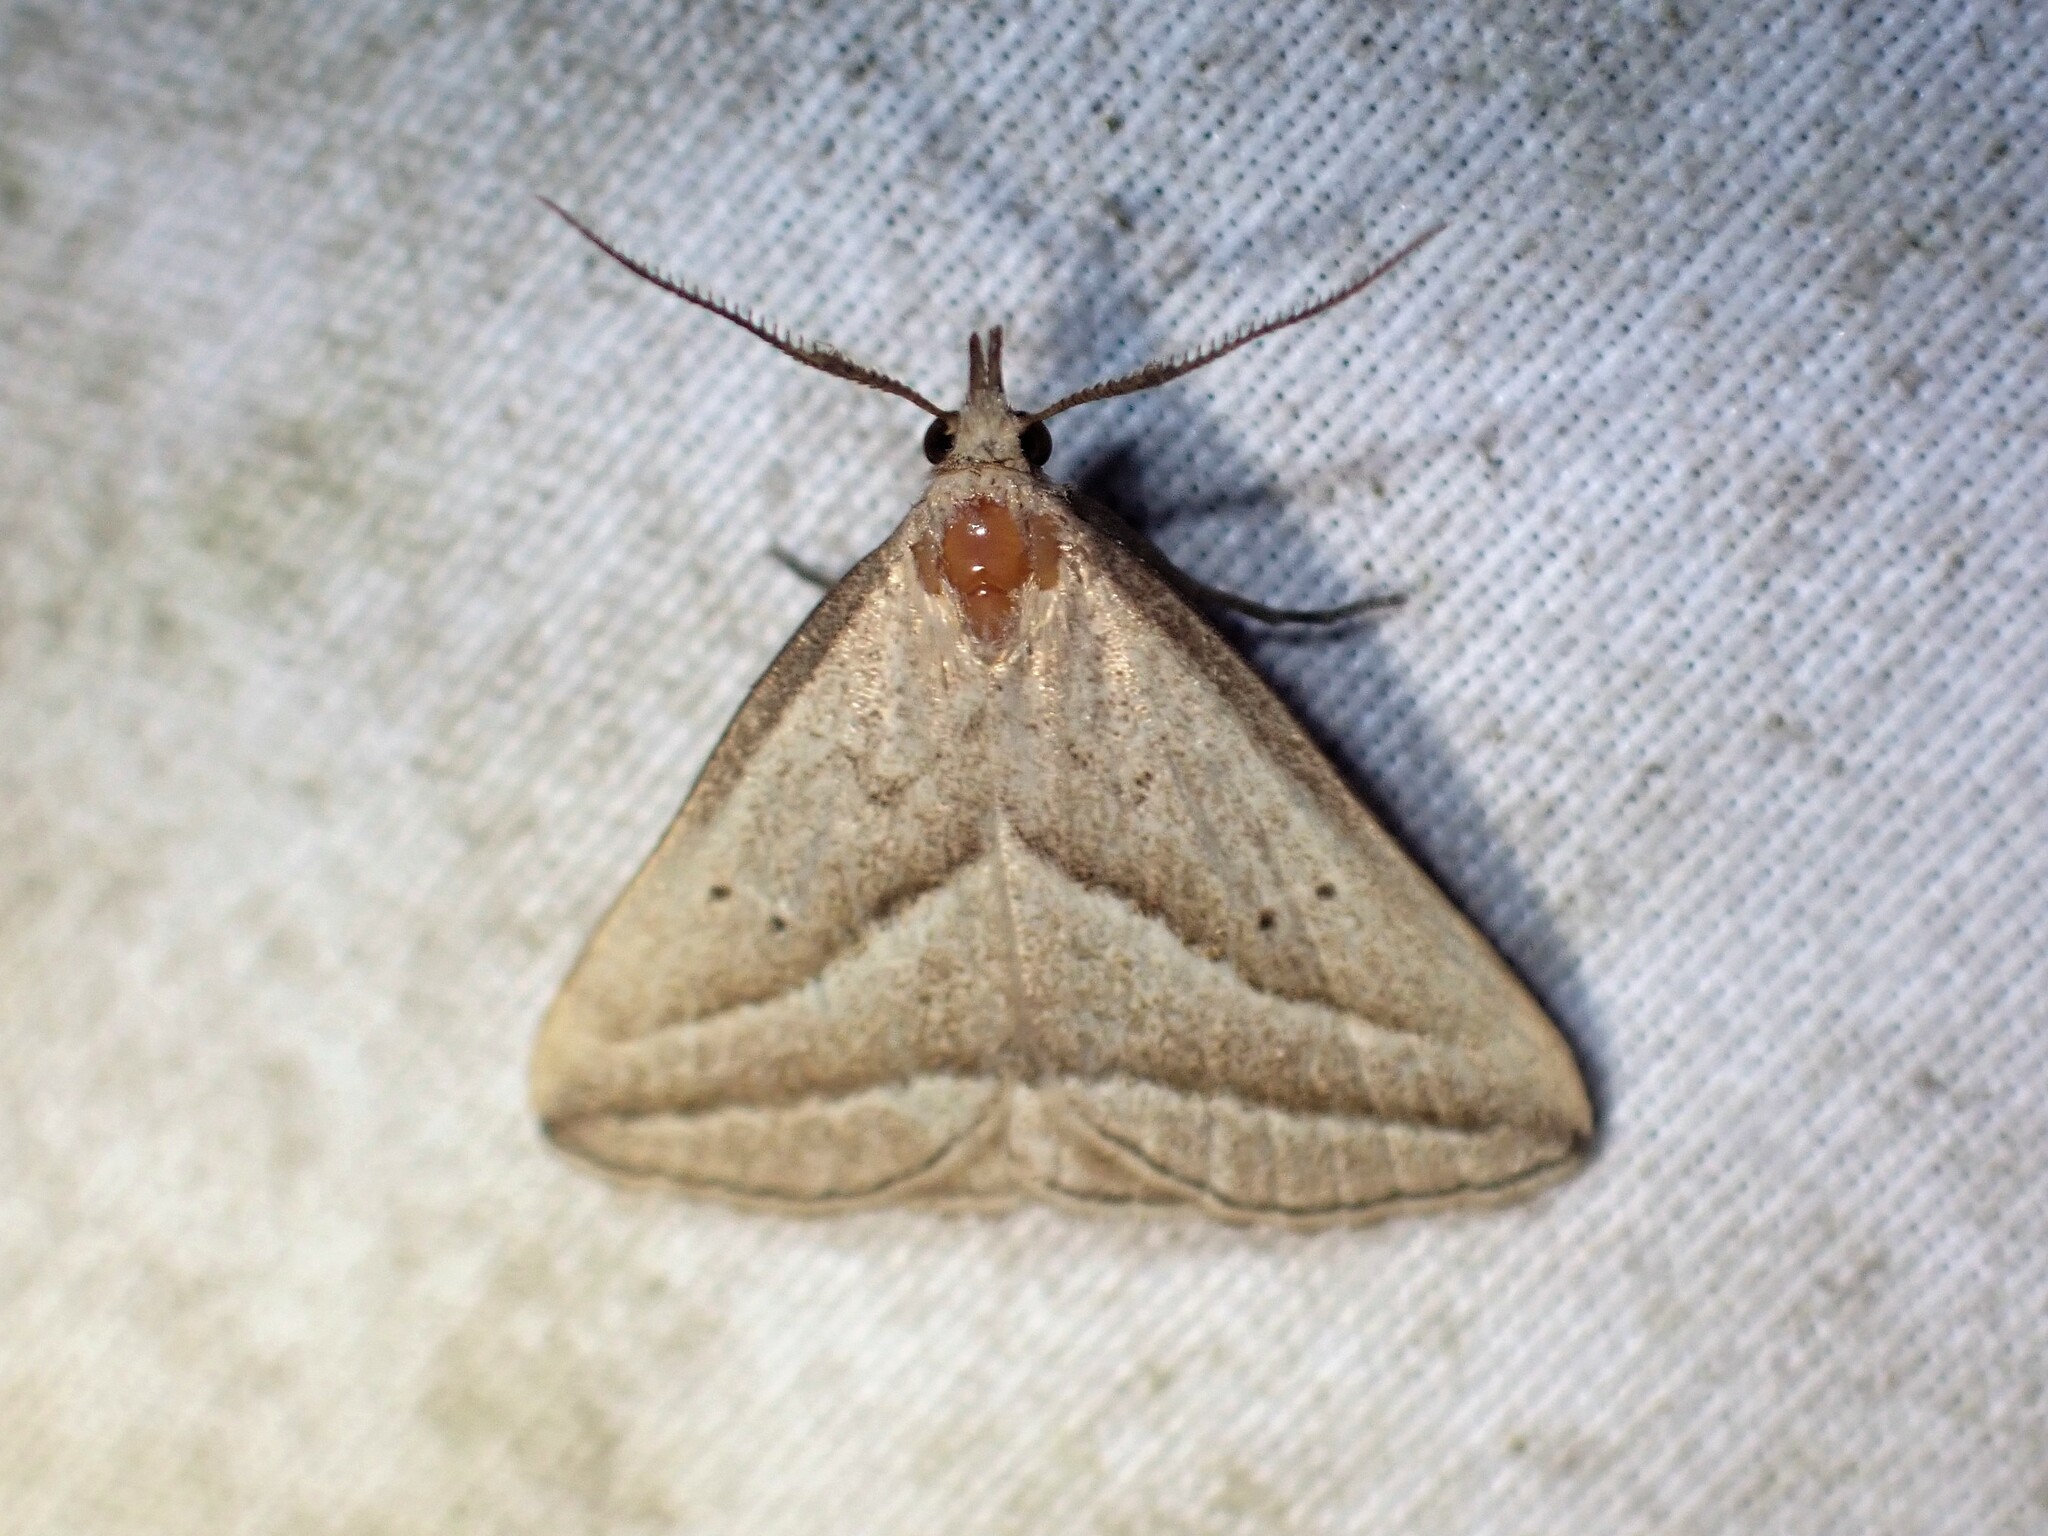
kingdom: Animalia
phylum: Arthropoda
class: Insecta
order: Lepidoptera
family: Erebidae
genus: Macrochilo
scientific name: Macrochilo absorptalis
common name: Slant-lined owlet
